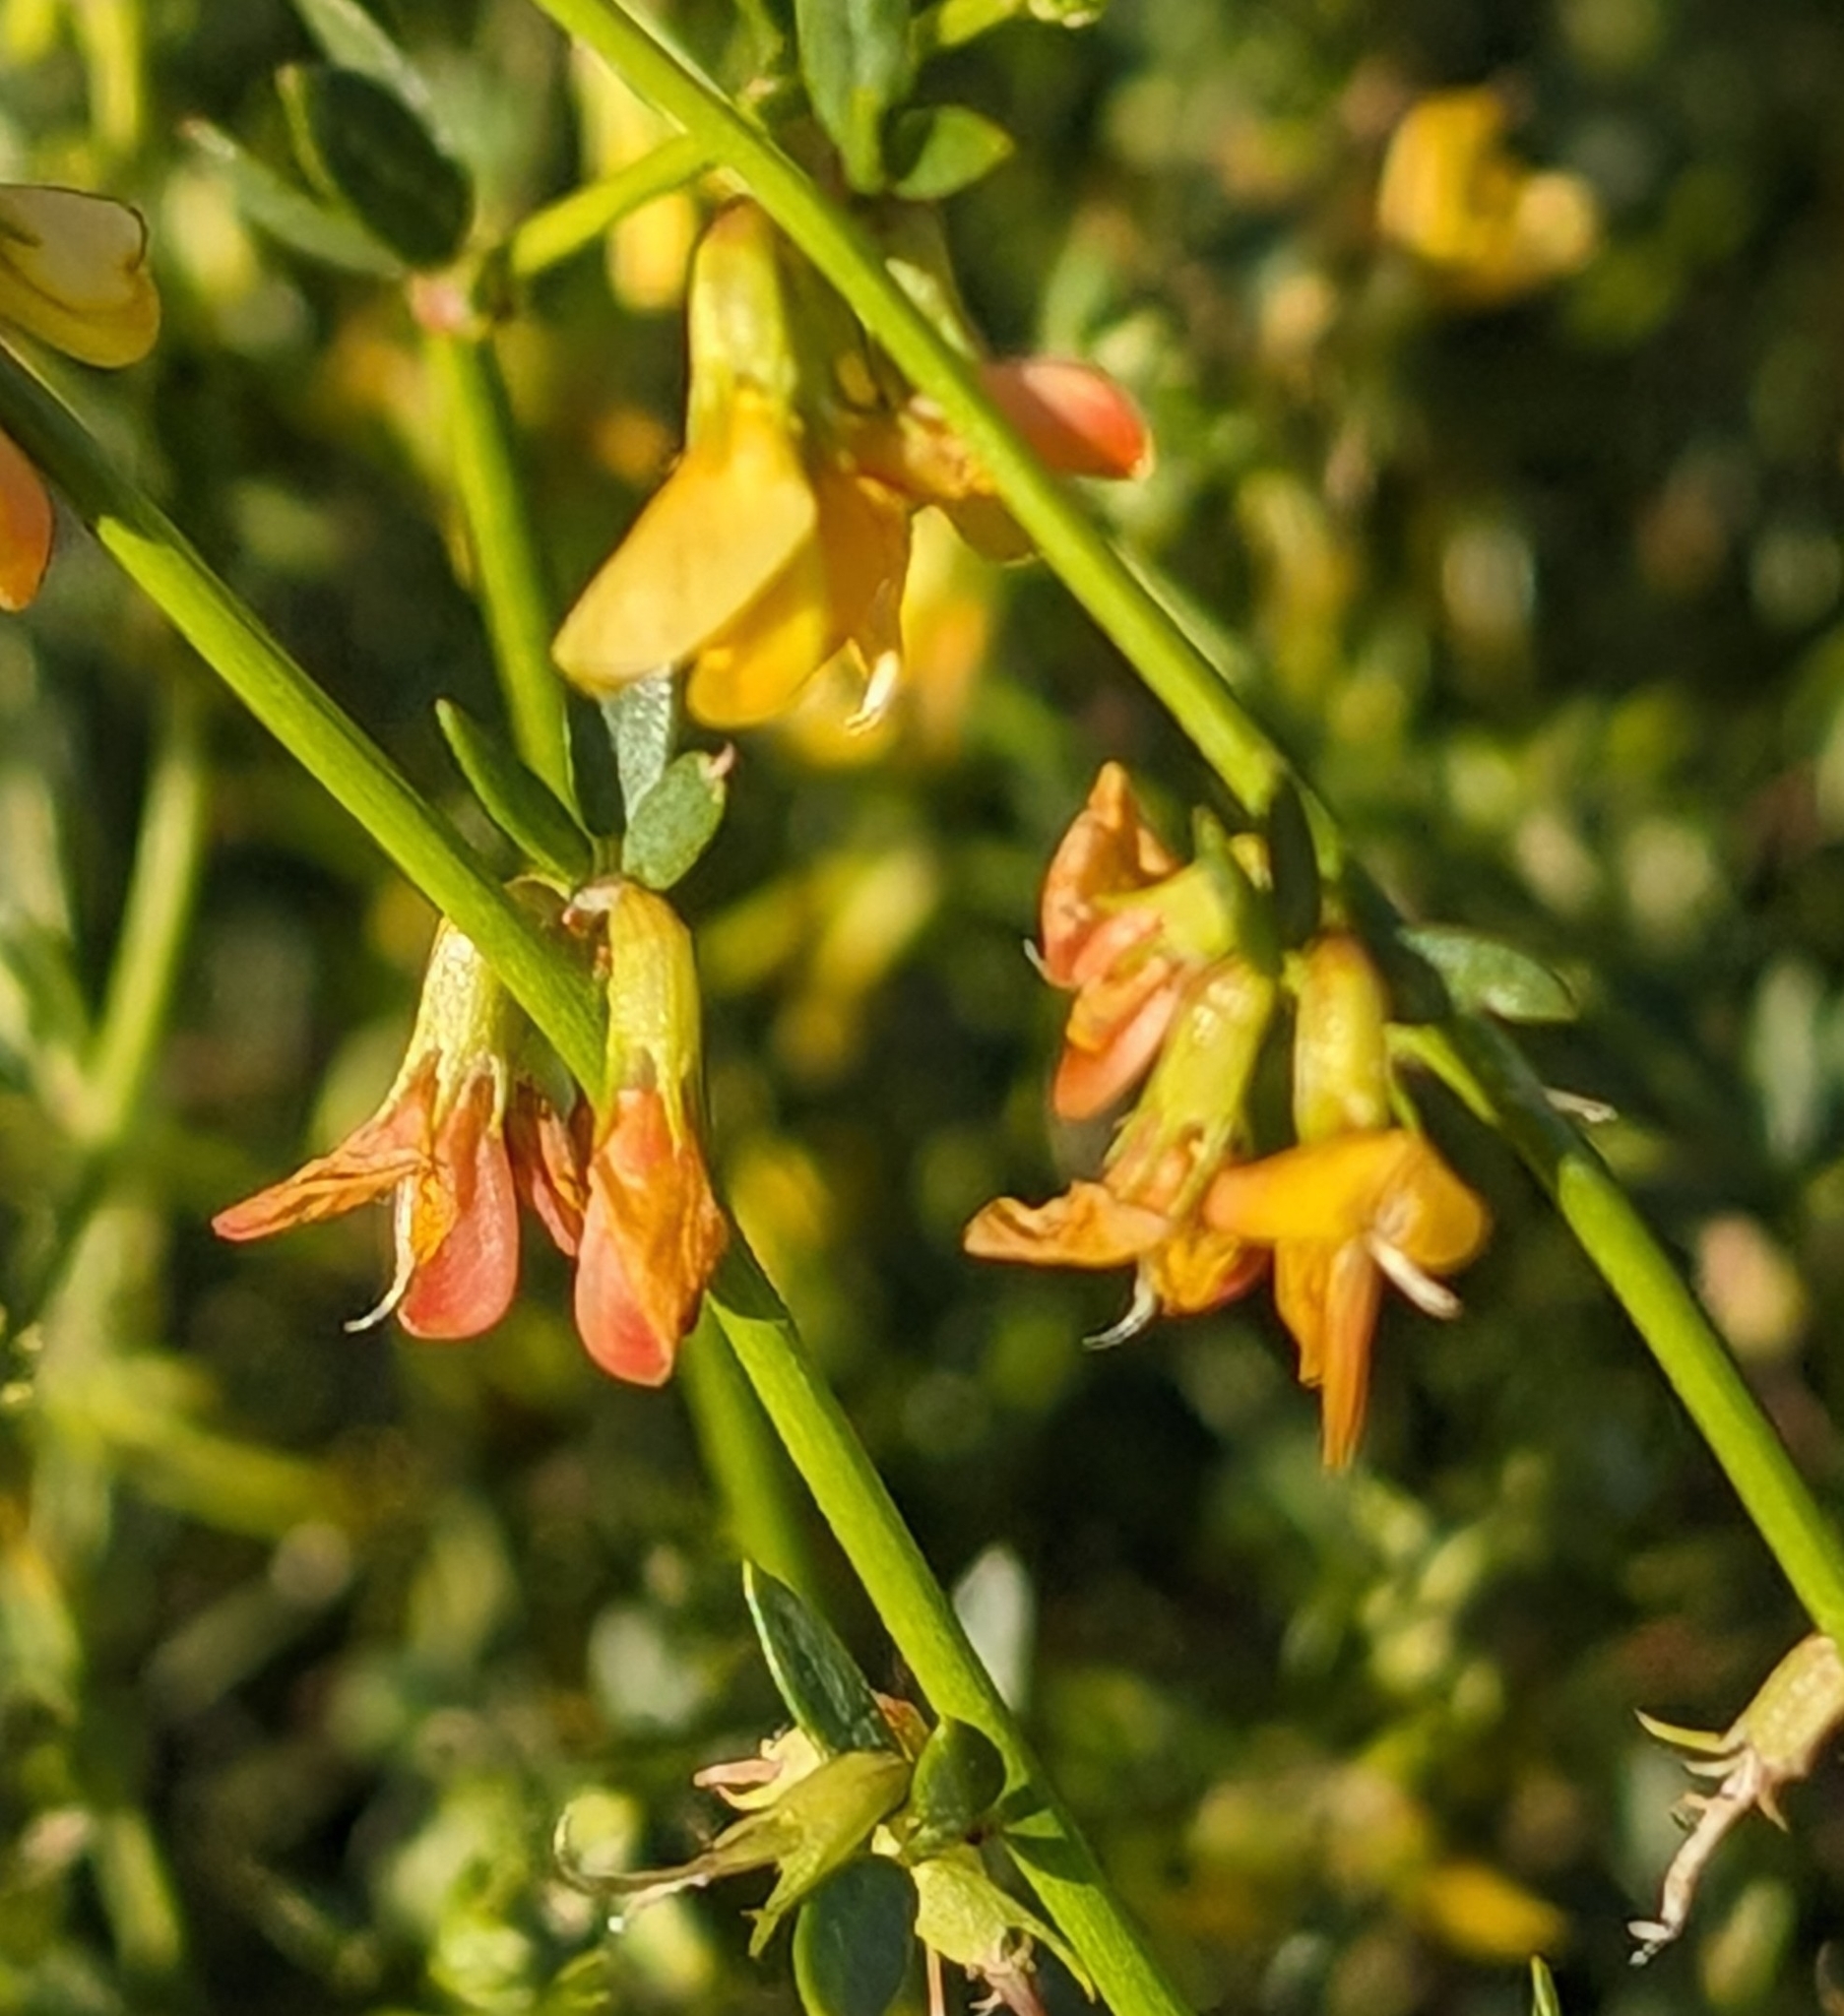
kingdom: Plantae
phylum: Tracheophyta
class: Magnoliopsida
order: Fabales
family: Fabaceae
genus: Acmispon
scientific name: Acmispon glaber
